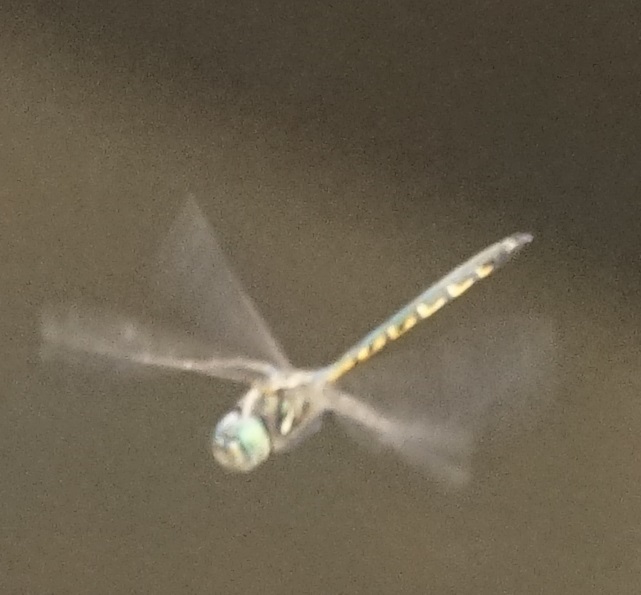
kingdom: Animalia
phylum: Arthropoda
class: Insecta
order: Odonata
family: Corduliidae
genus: Hemicordulia
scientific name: Hemicordulia australiae
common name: Sentry dragonfly
